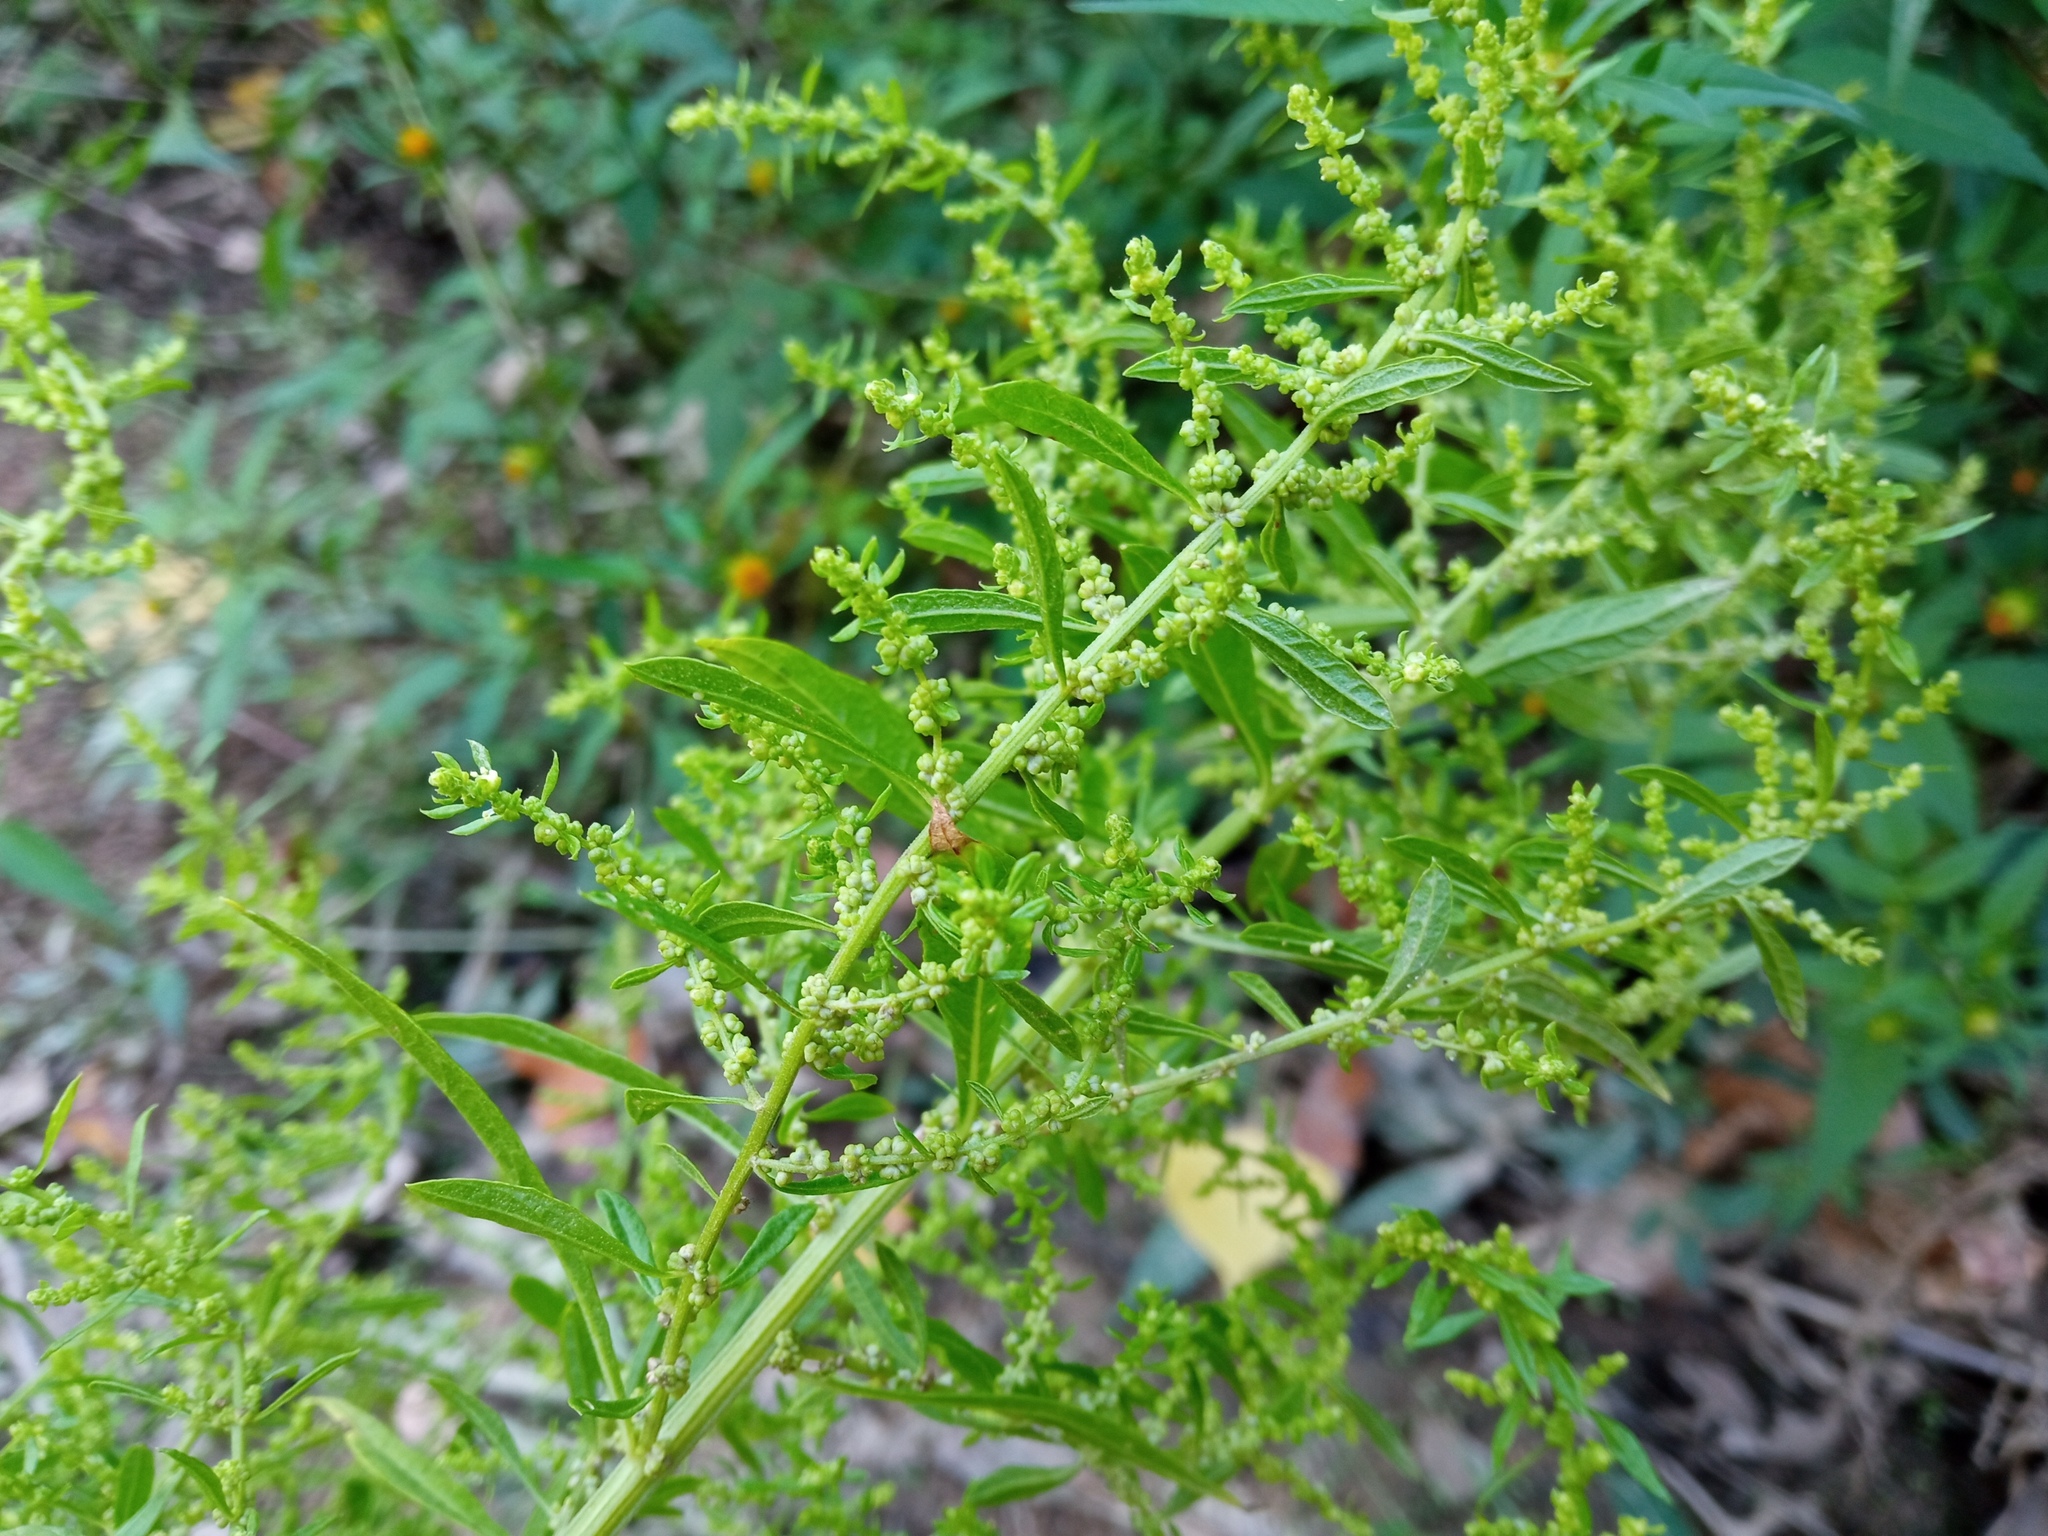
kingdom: Plantae
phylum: Tracheophyta
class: Magnoliopsida
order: Caryophyllales
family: Amaranthaceae
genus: Dysphania
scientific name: Dysphania ambrosioides
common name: Wormseed
